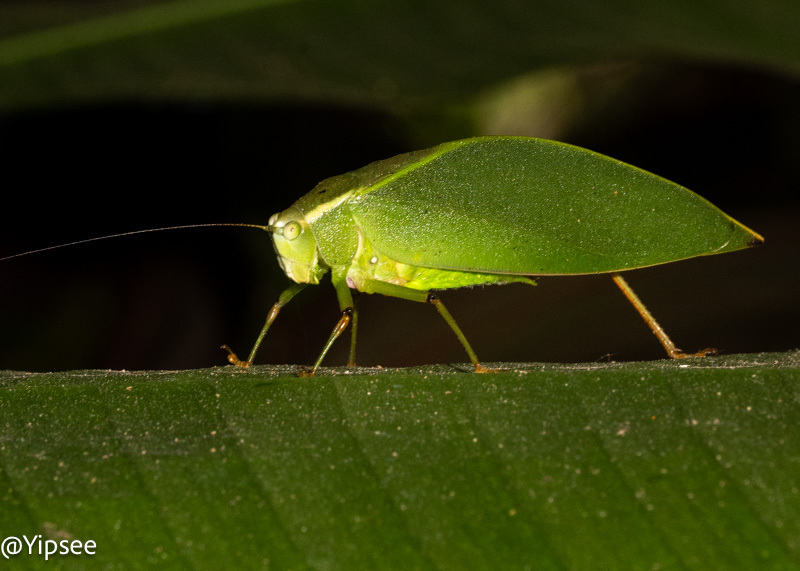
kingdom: Animalia
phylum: Arthropoda
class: Insecta
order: Orthoptera
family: Tettigoniidae
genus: Sympaestria
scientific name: Sympaestria genualis
